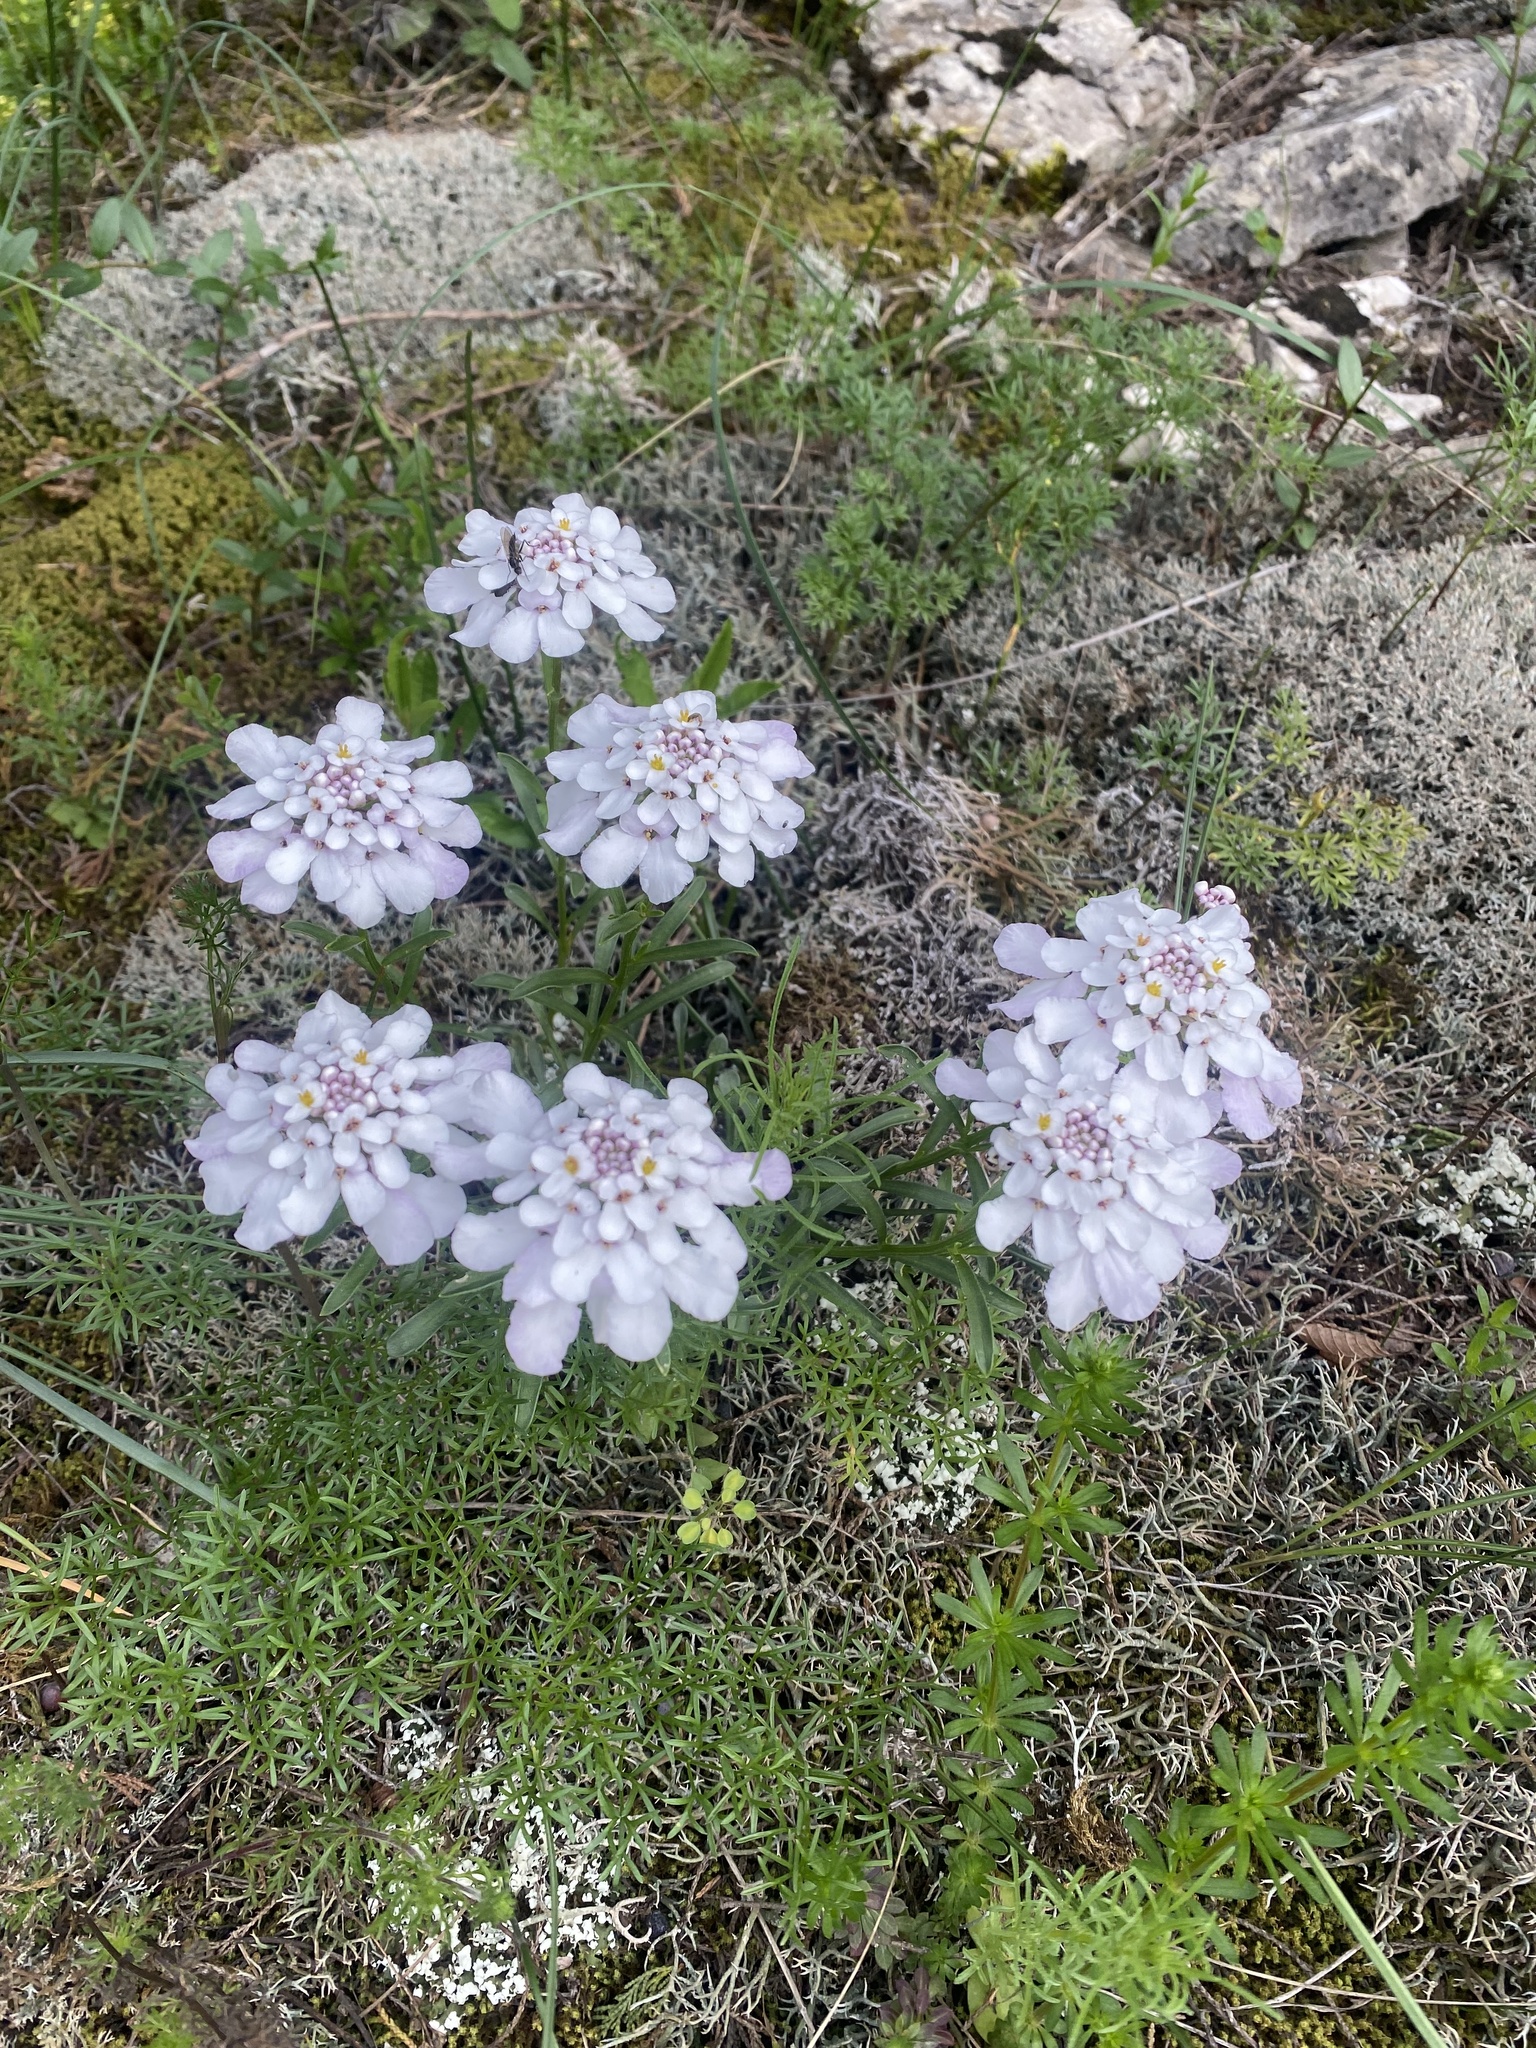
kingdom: Plantae
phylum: Tracheophyta
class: Magnoliopsida
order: Brassicales
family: Brassicaceae
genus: Iberis
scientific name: Iberis simplex
